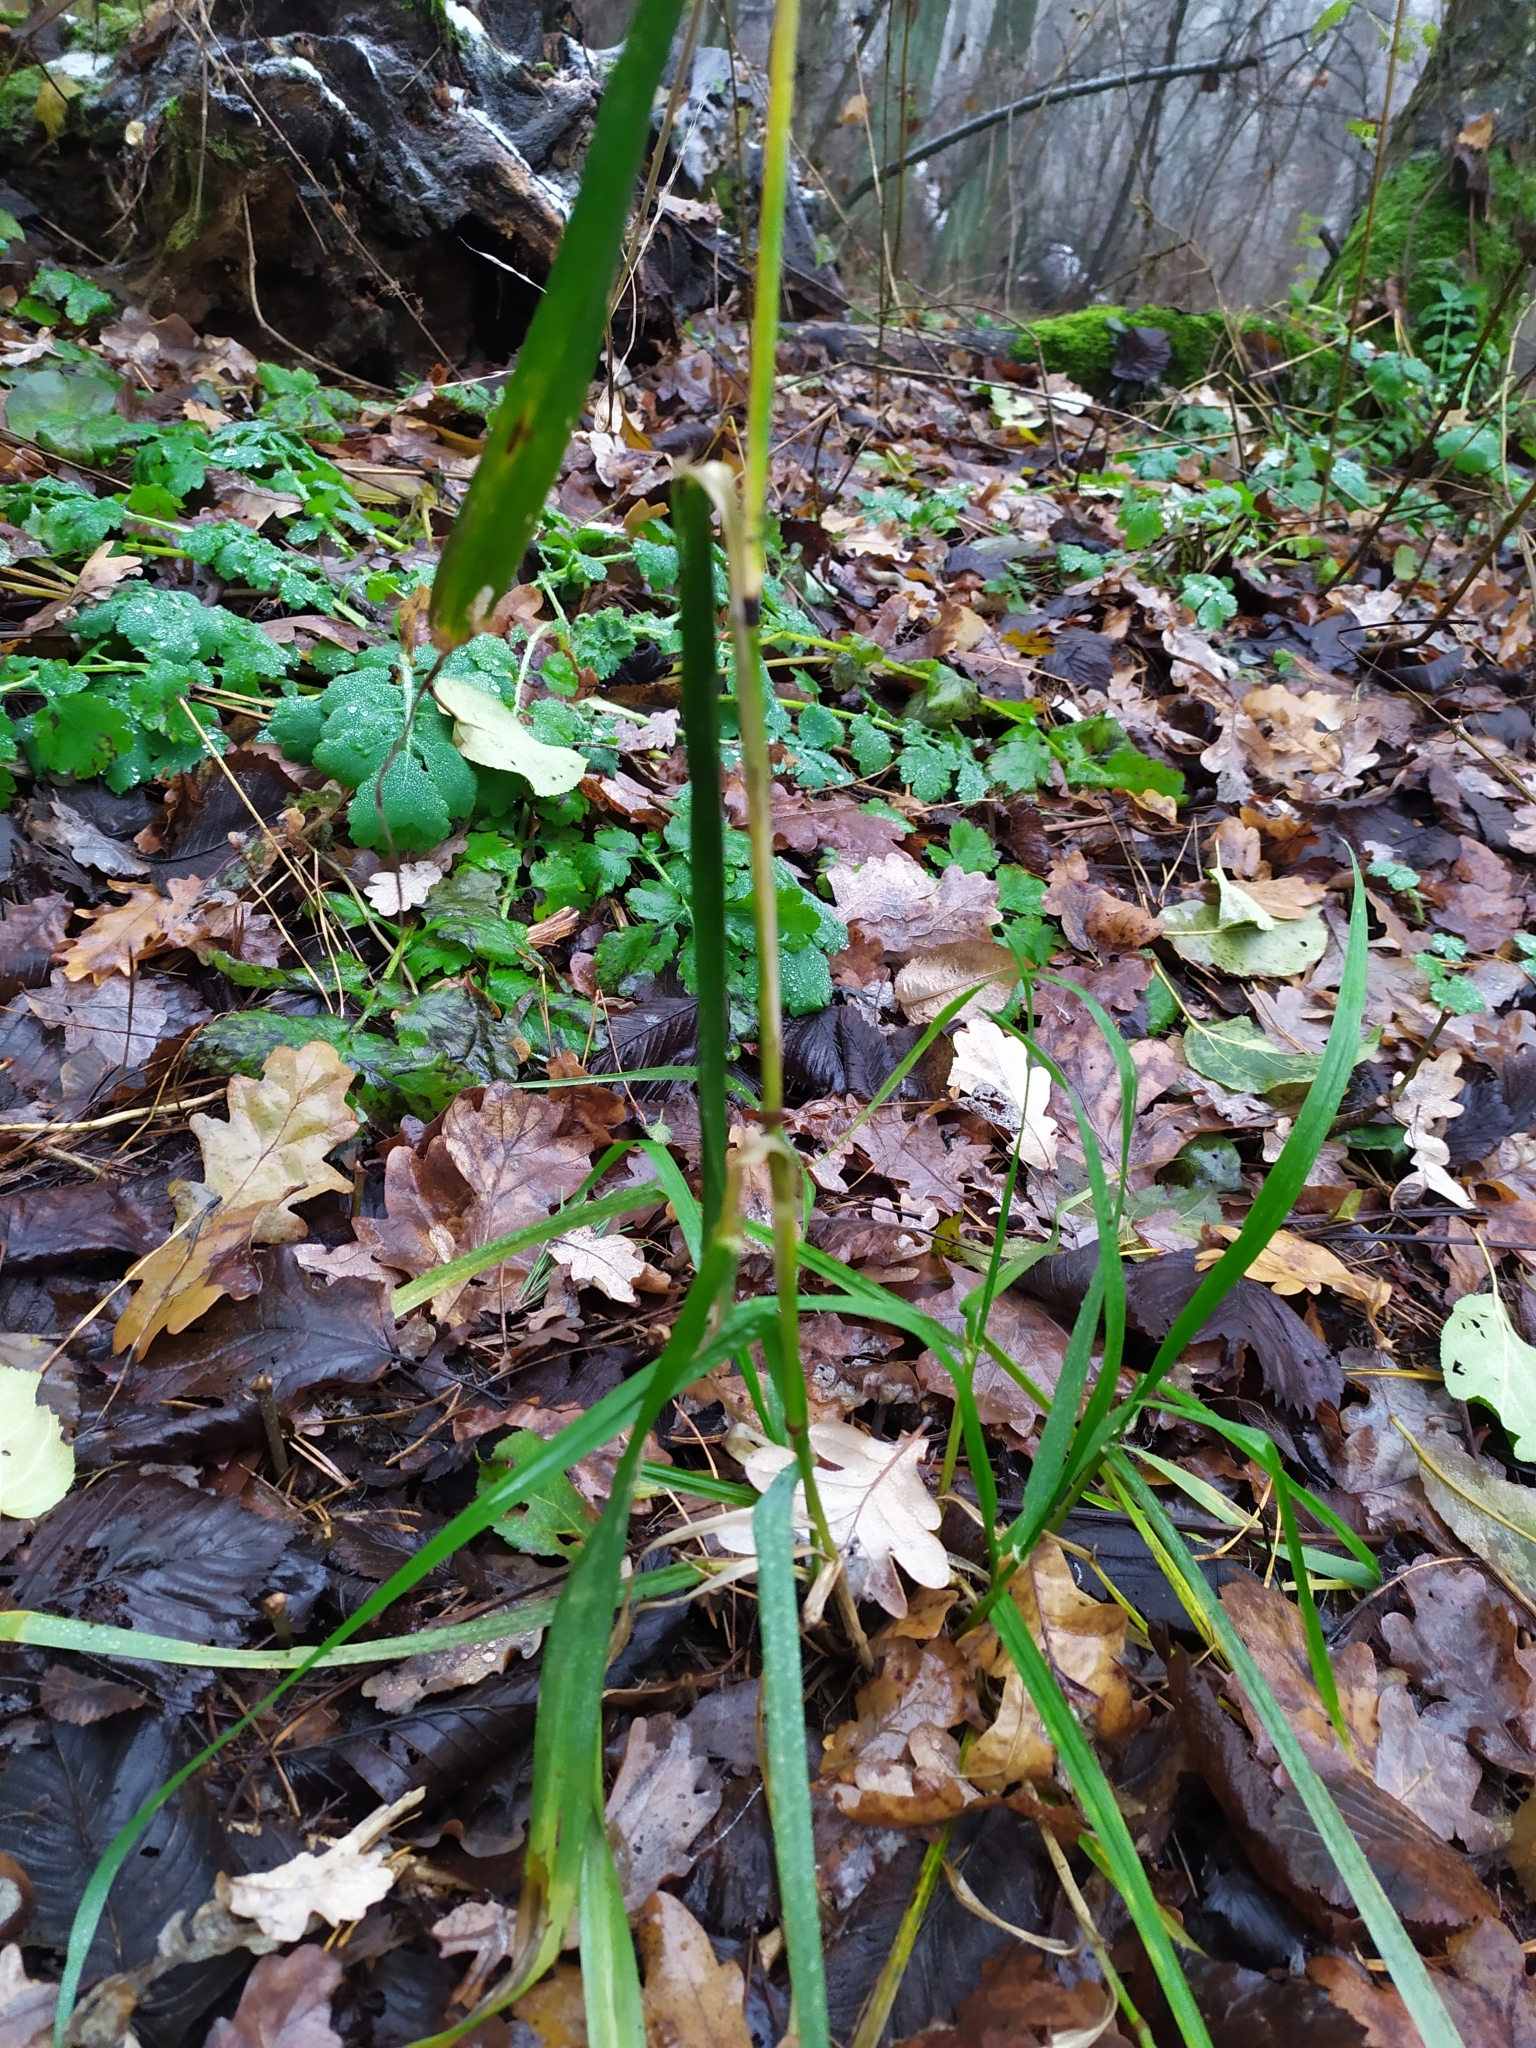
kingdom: Plantae
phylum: Tracheophyta
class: Liliopsida
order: Poales
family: Poaceae
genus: Lolium
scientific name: Lolium giganteum
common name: Giant fescue
